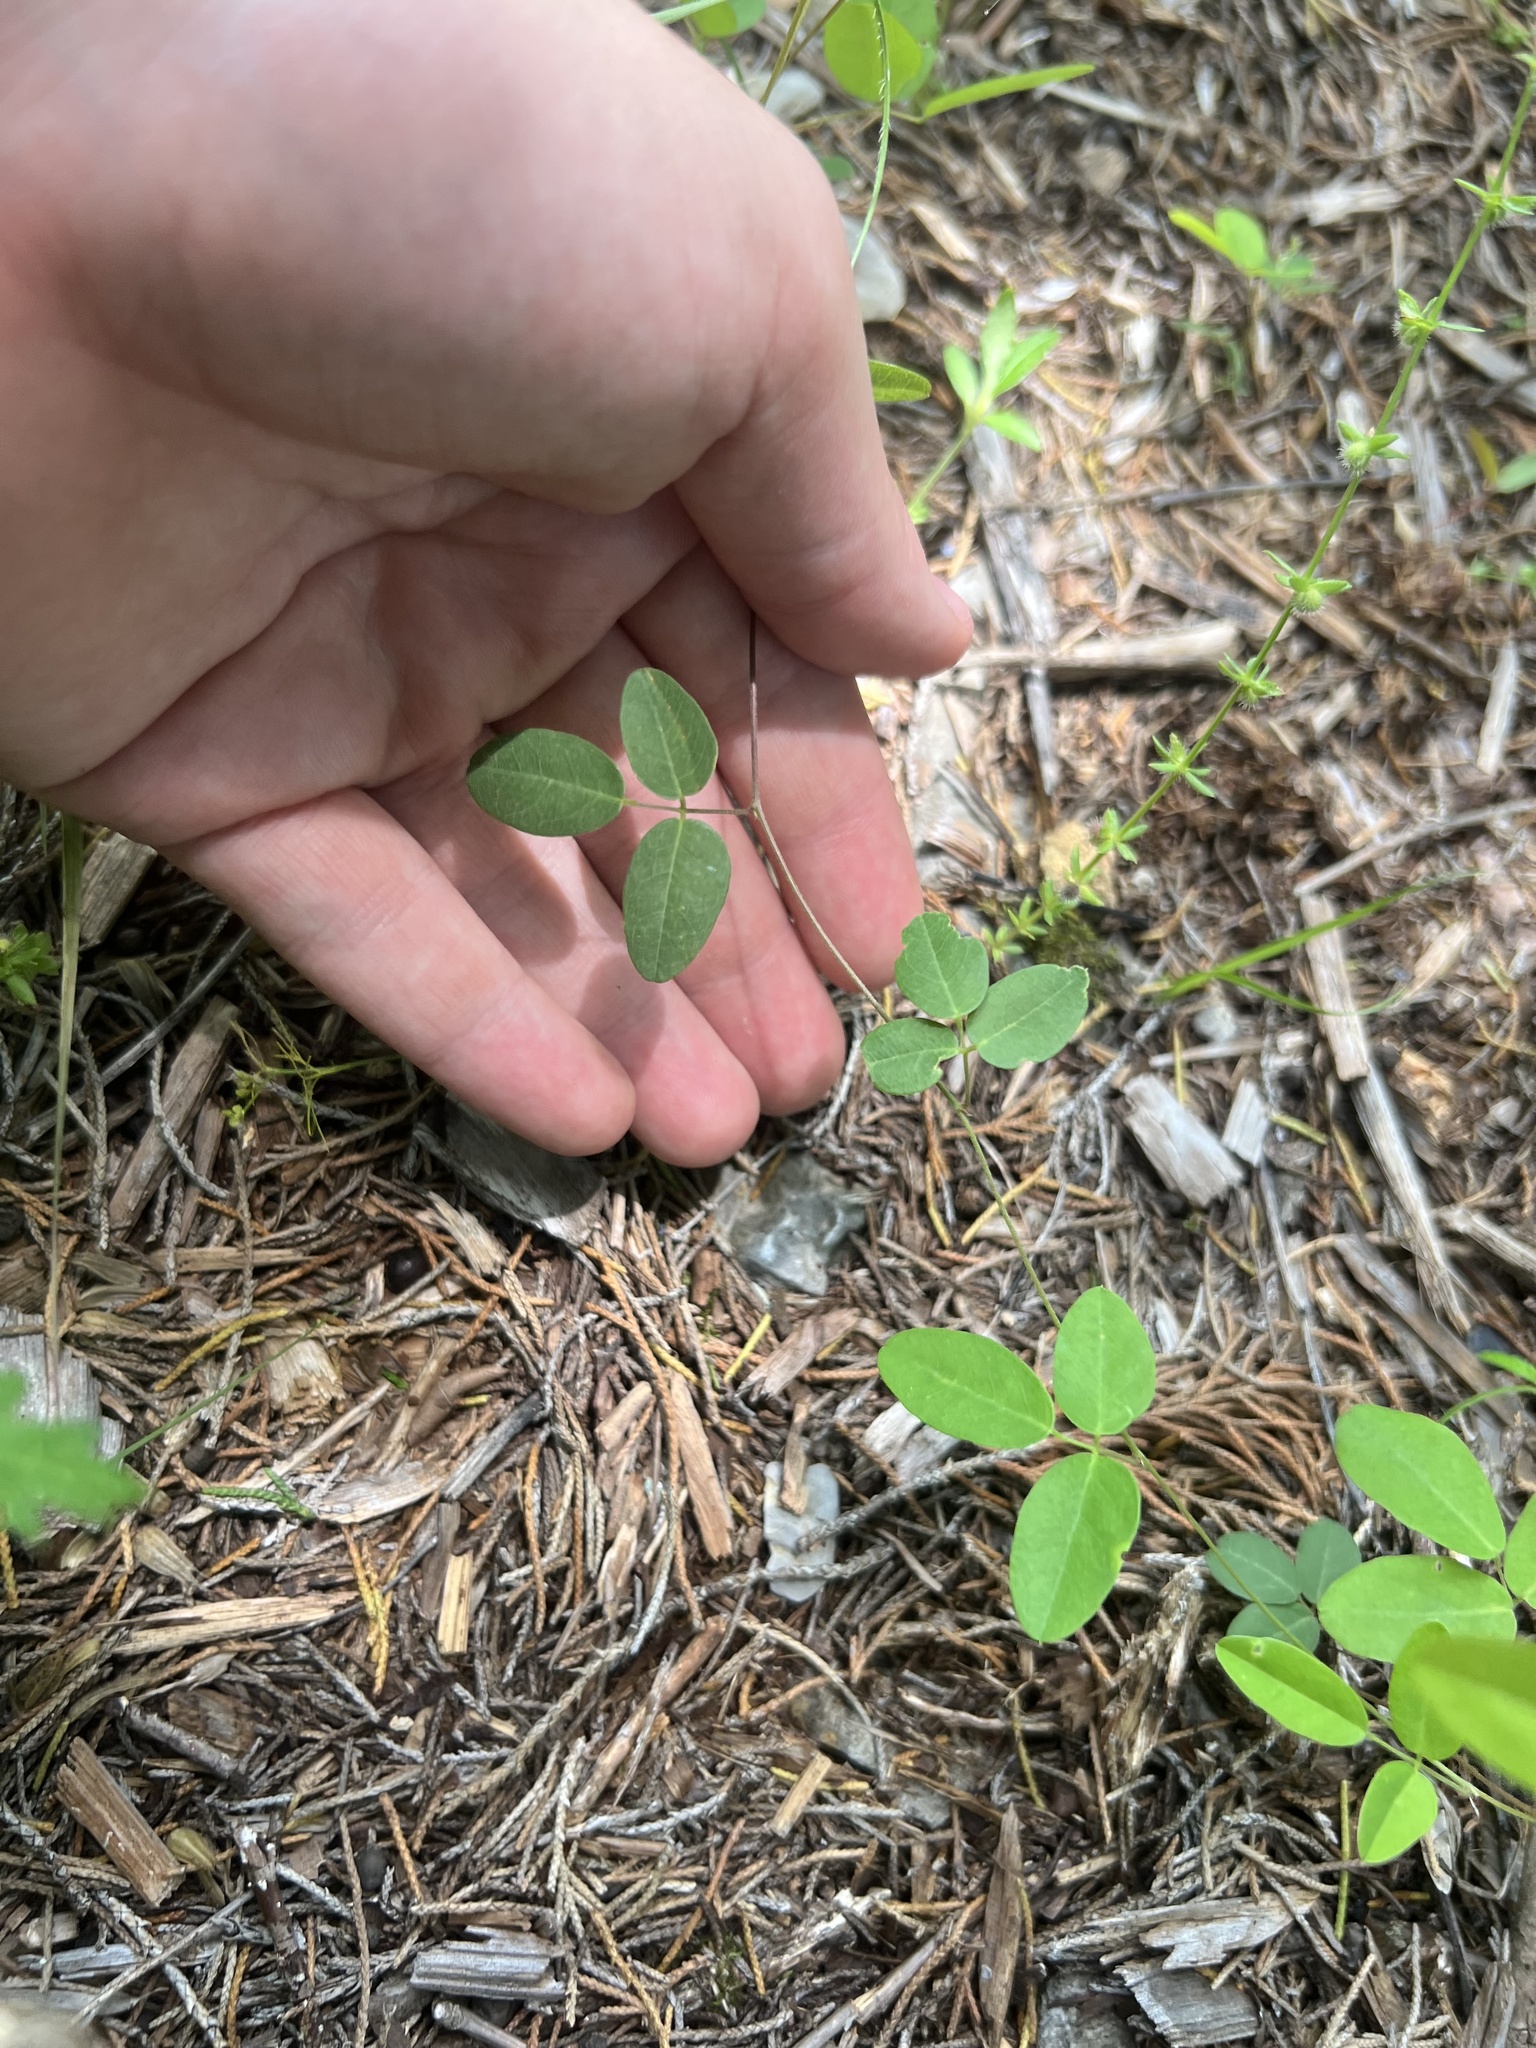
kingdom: Plantae
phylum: Tracheophyta
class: Magnoliopsida
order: Fabales
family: Fabaceae
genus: Galactia
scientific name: Galactia regularis
